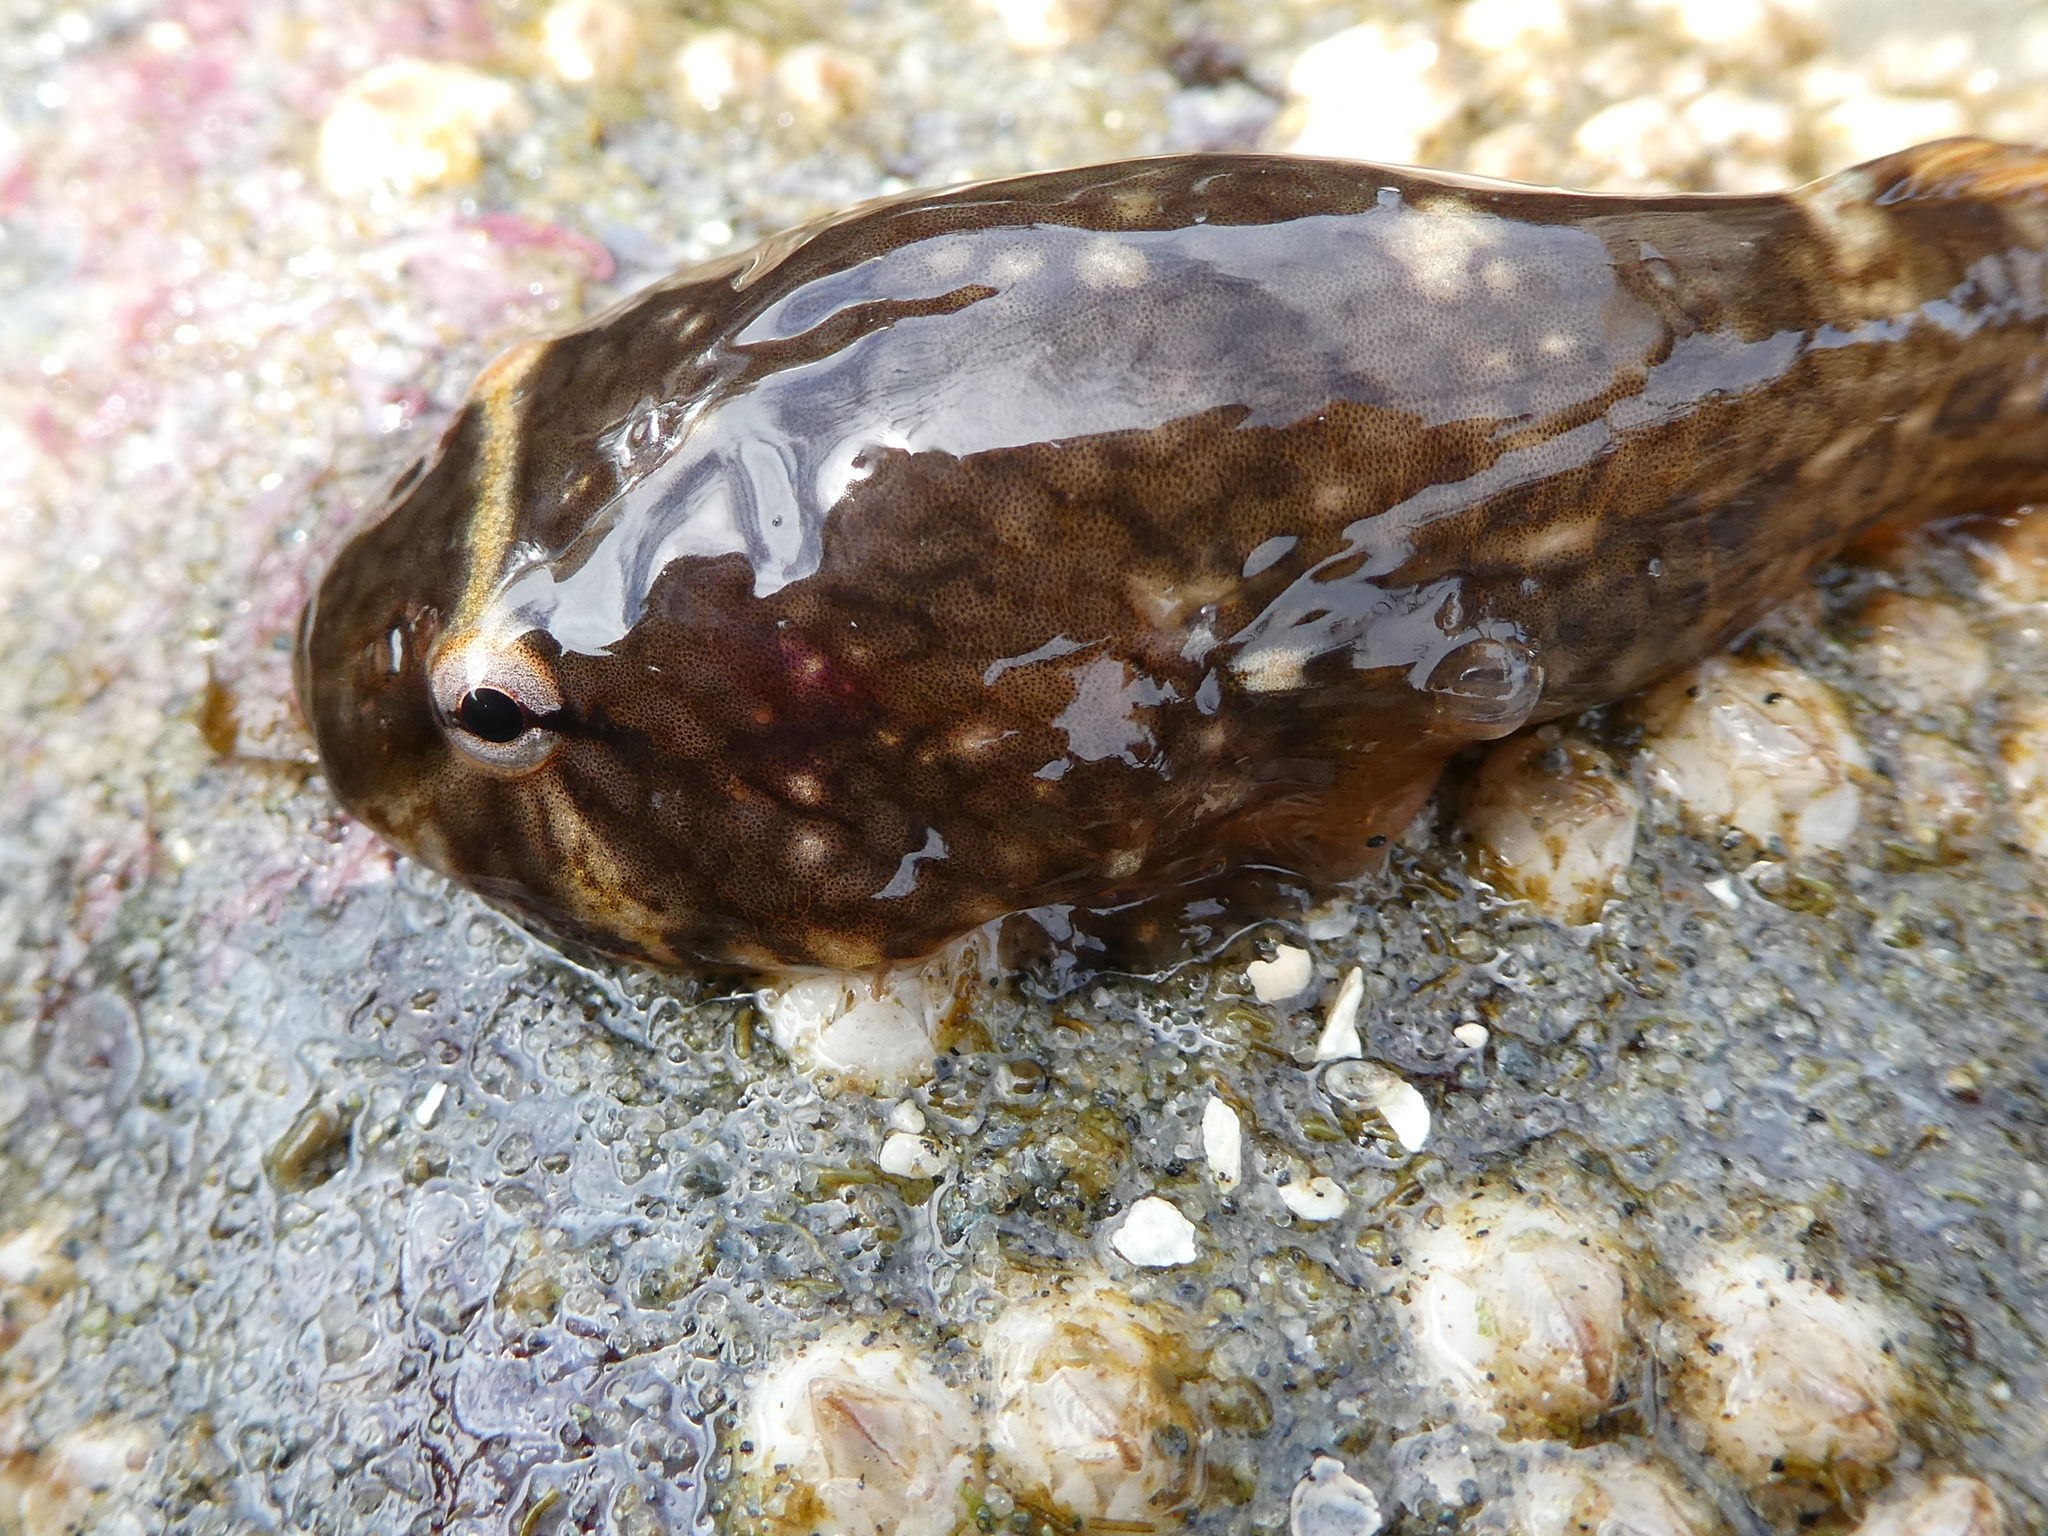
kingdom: Animalia
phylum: Chordata
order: Gobiesociformes
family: Gobiesocidae
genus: Gobiesox
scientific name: Gobiesox maeandricus
